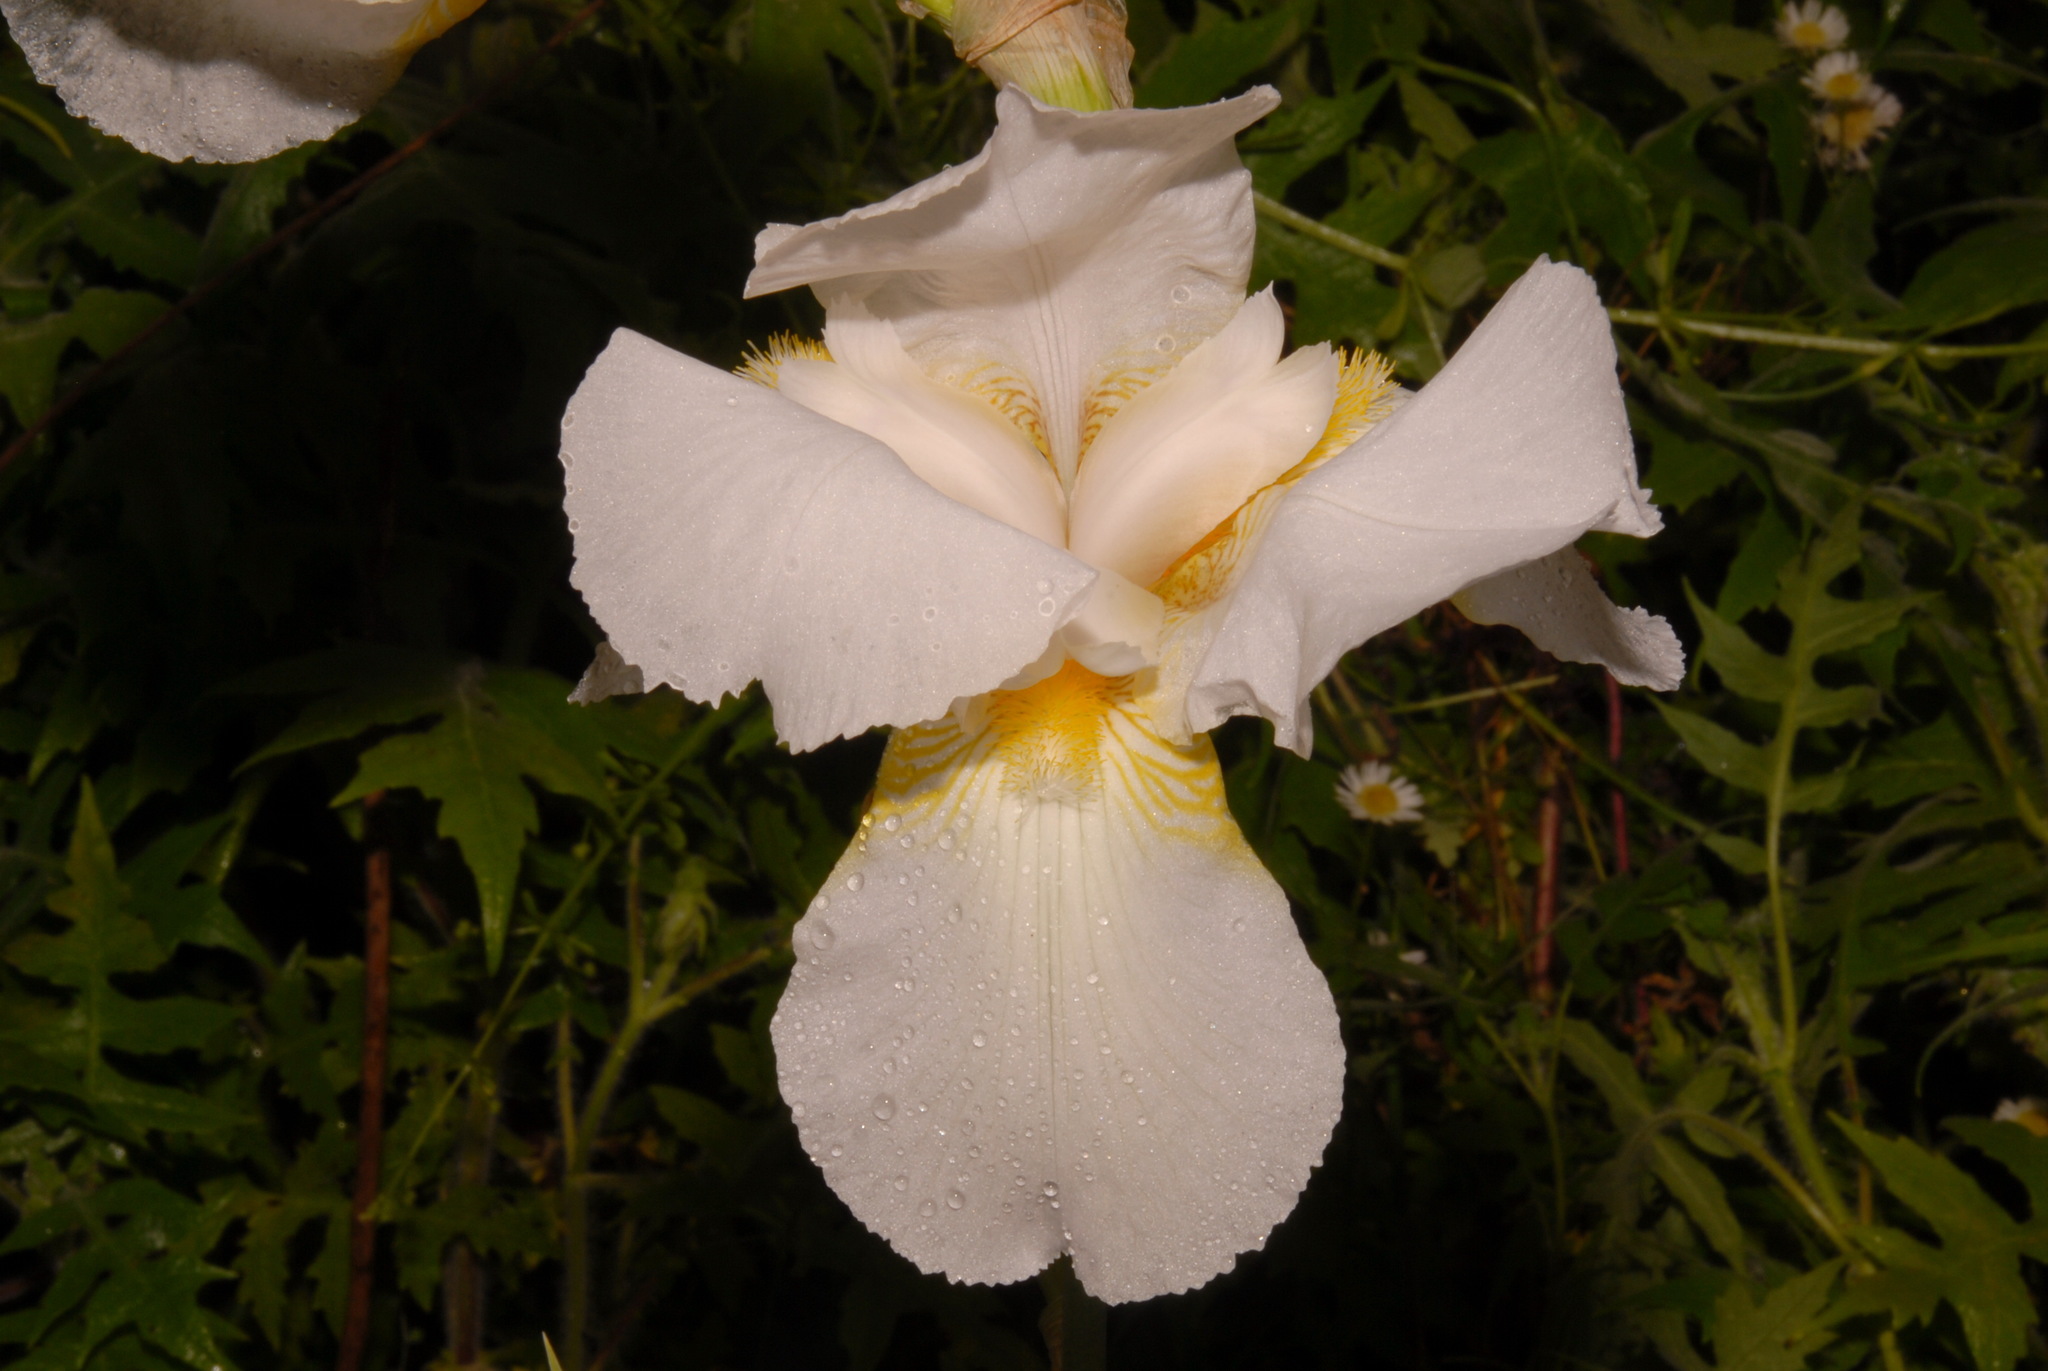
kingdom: Plantae
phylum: Tracheophyta
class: Liliopsida
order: Asparagales
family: Iridaceae
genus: Iris
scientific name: Iris hybrida
